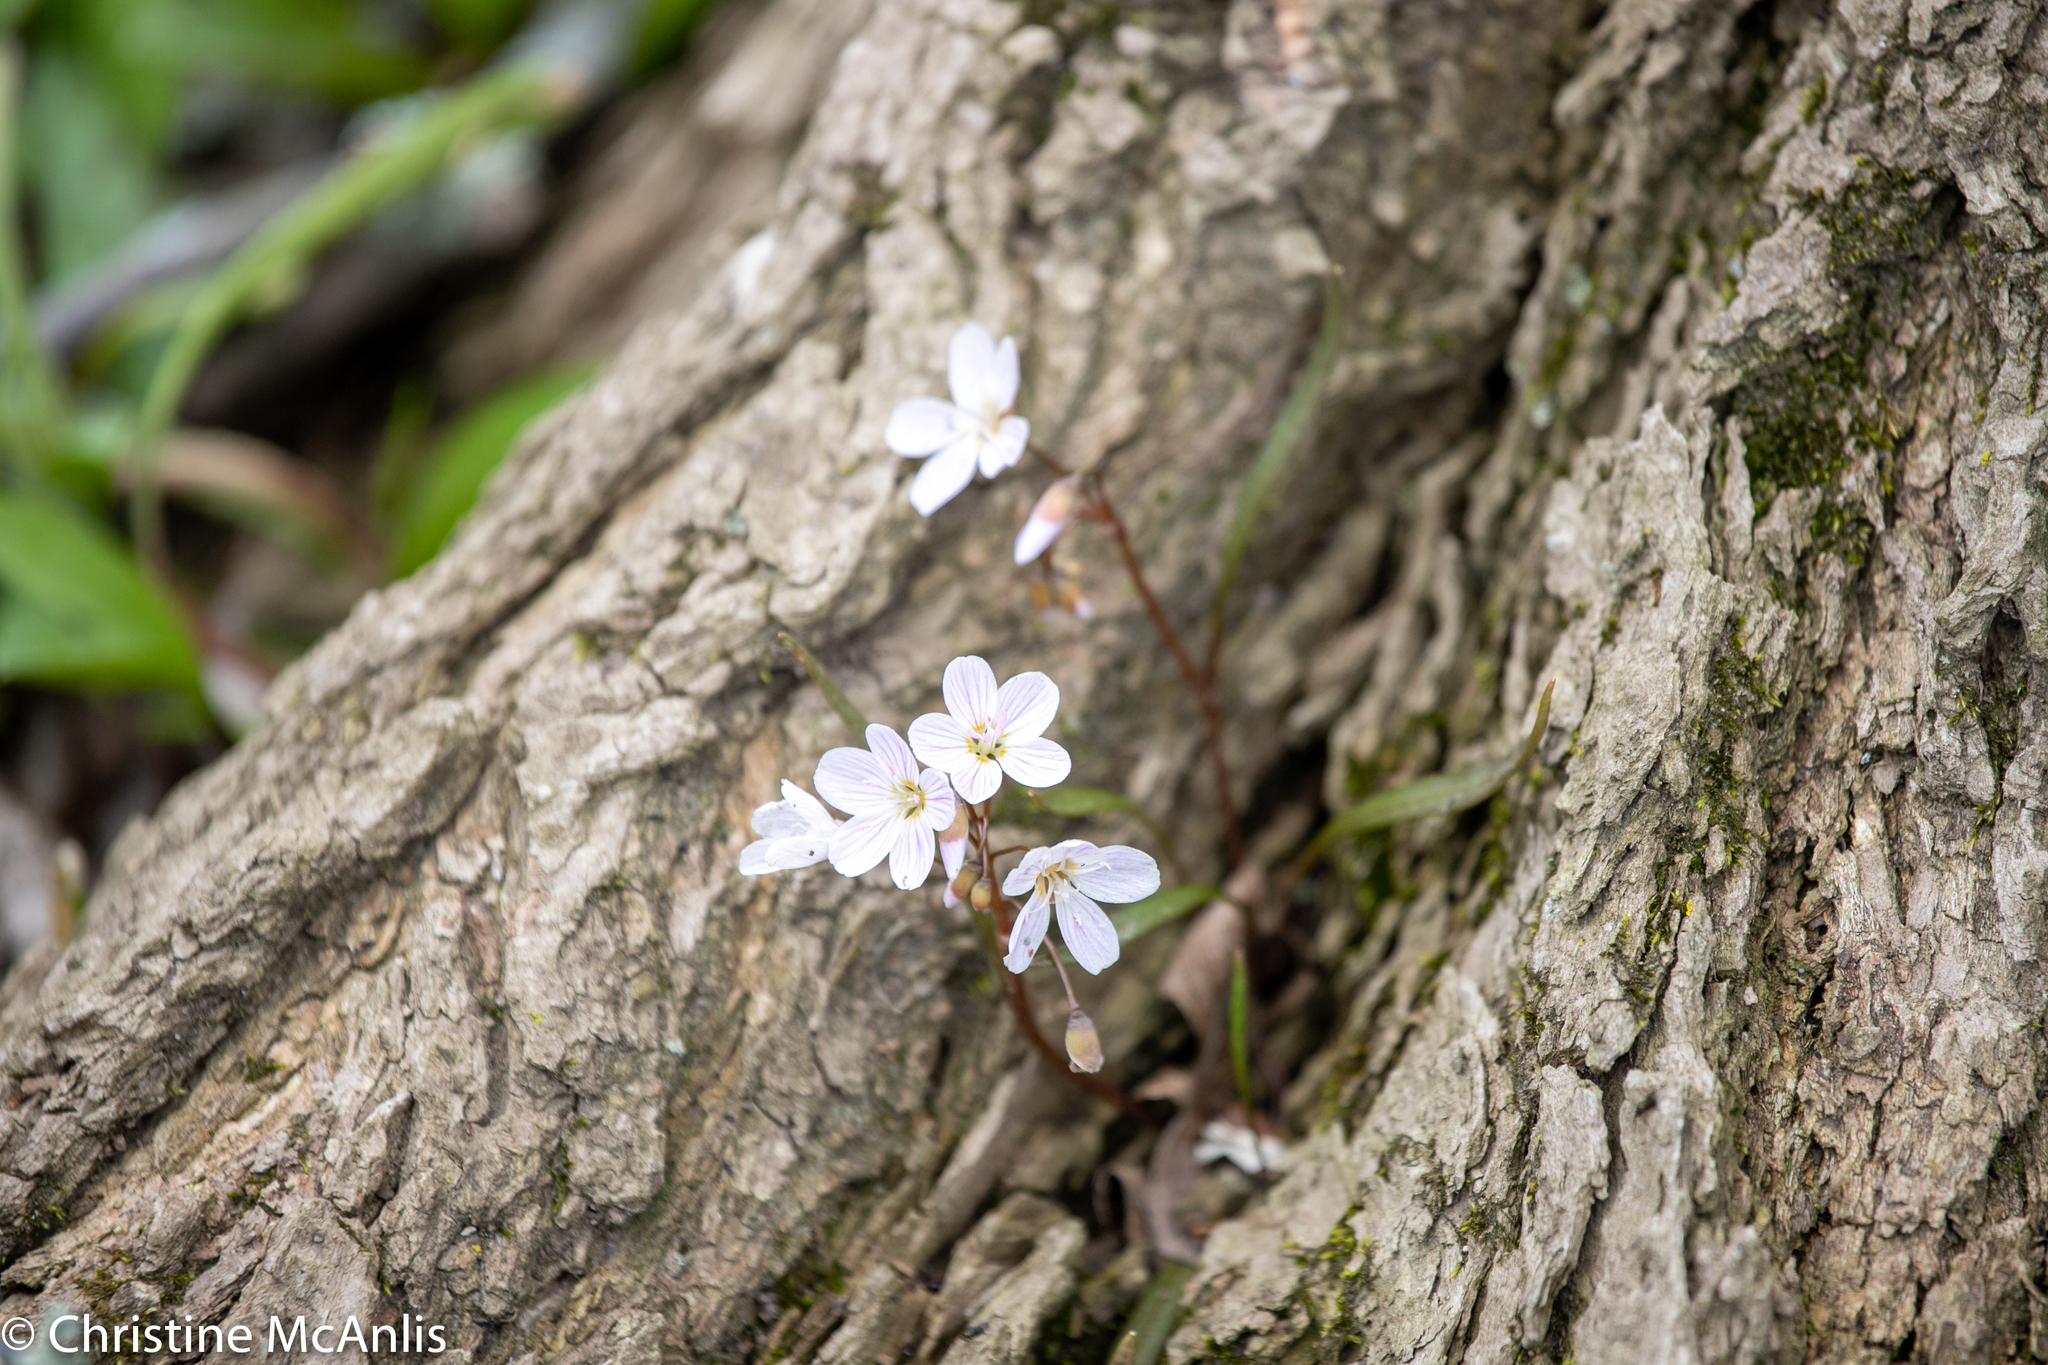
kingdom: Plantae
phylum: Tracheophyta
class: Magnoliopsida
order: Caryophyllales
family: Montiaceae
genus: Claytonia
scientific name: Claytonia virginica
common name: Virginia springbeauty
